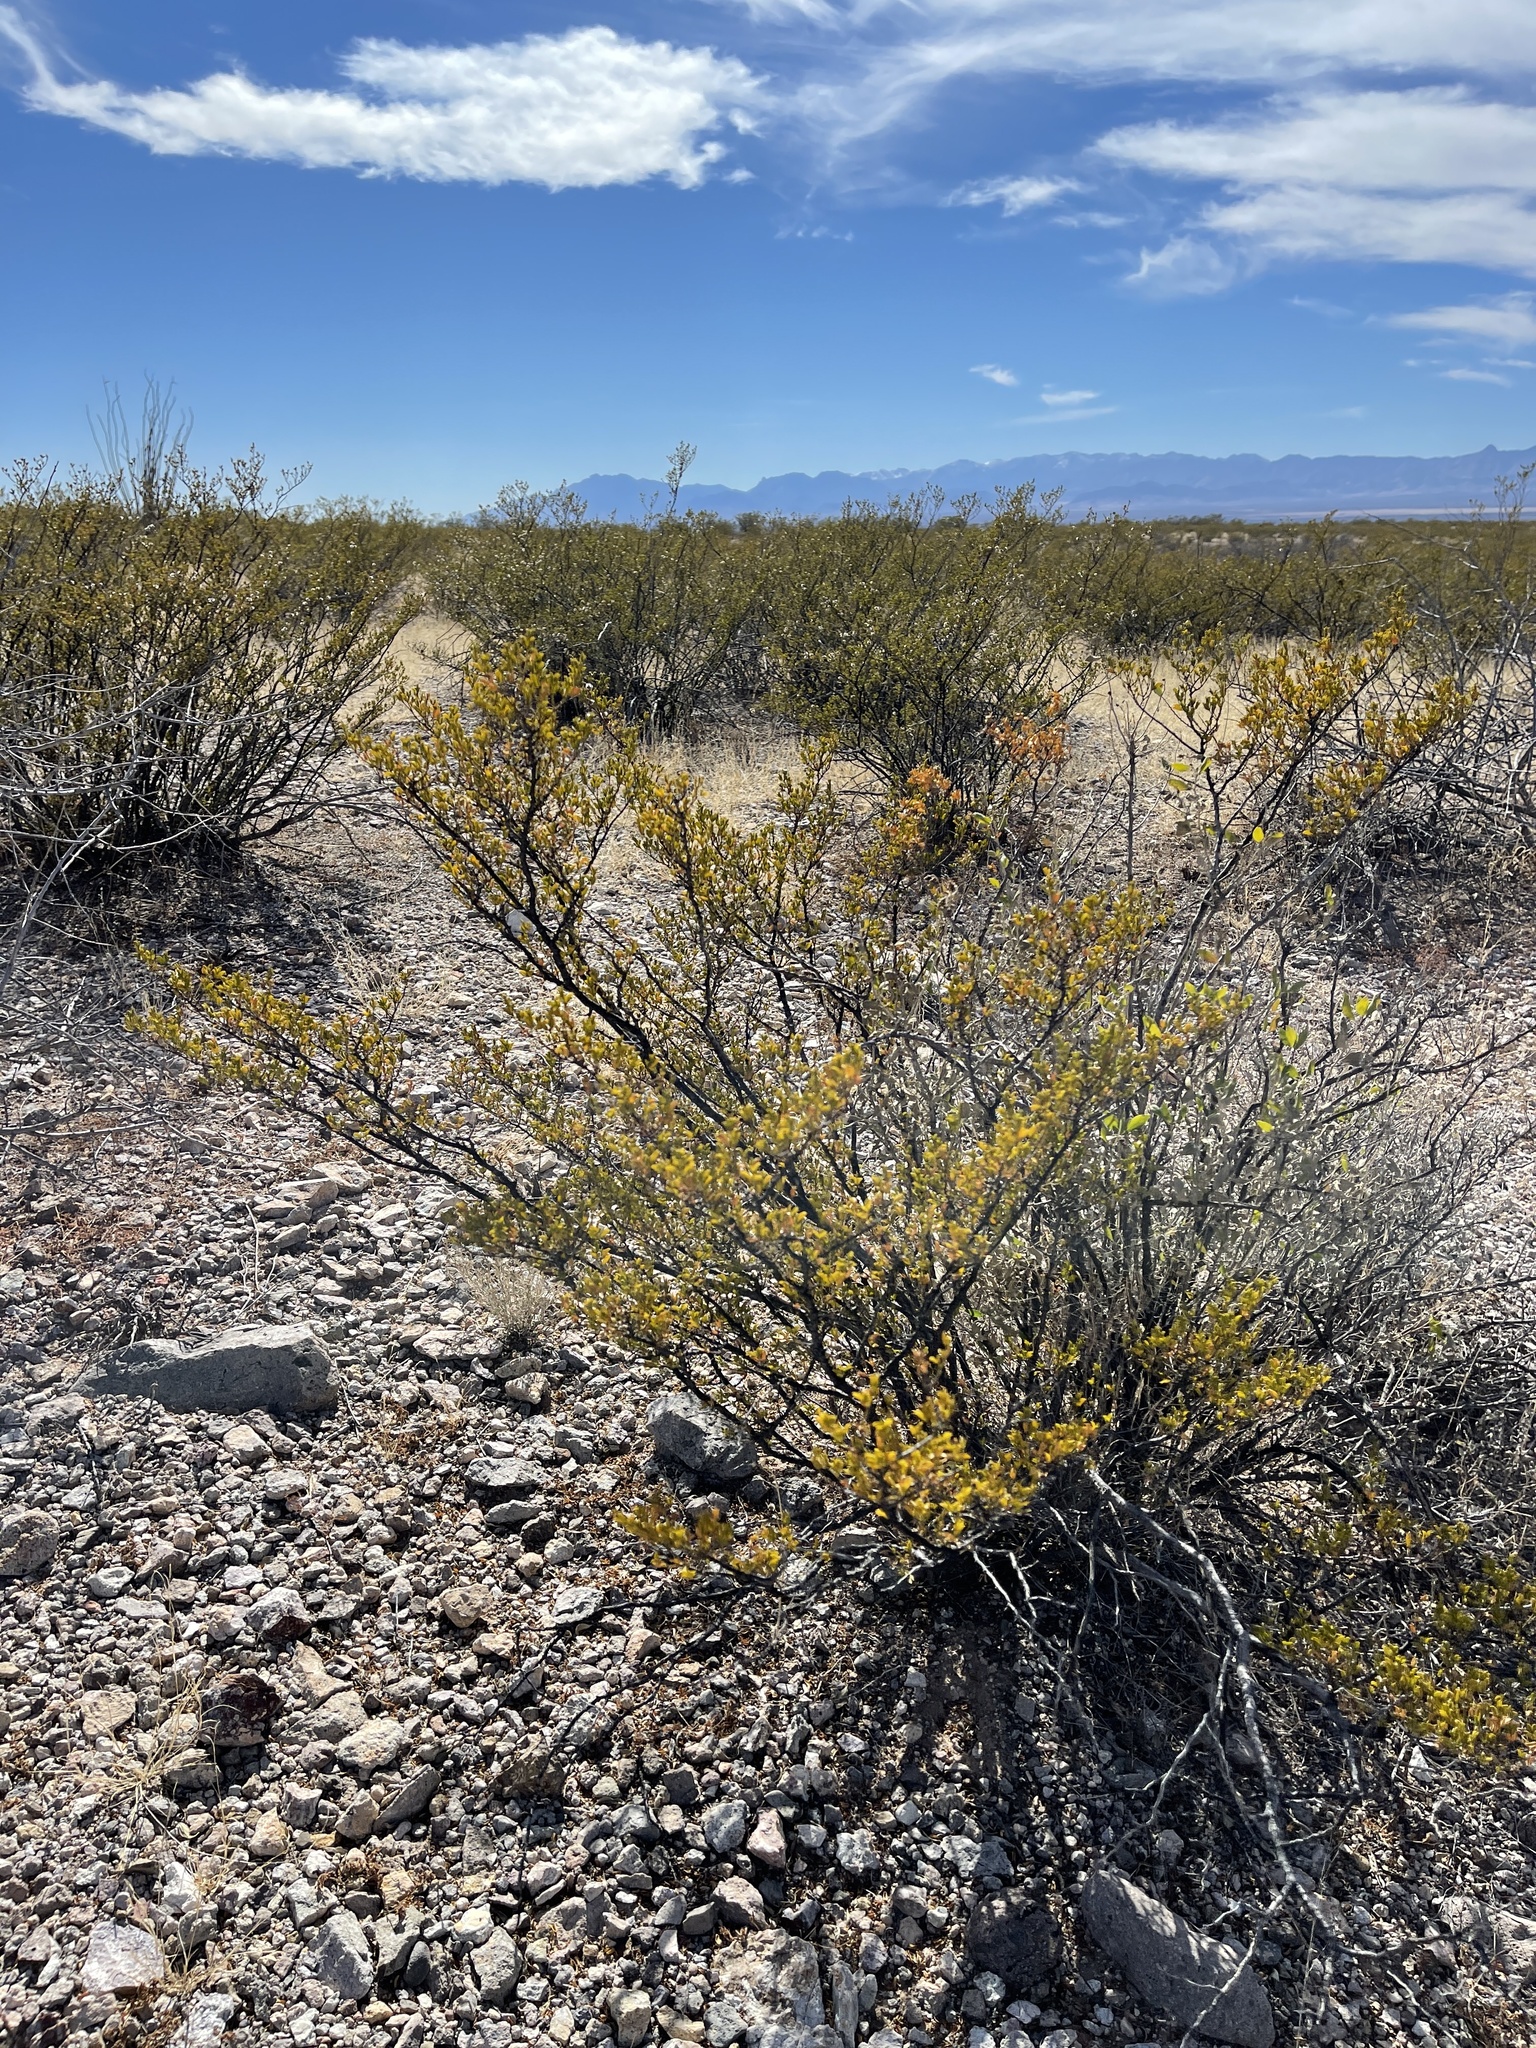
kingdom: Plantae
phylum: Tracheophyta
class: Magnoliopsida
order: Zygophyllales
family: Zygophyllaceae
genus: Larrea
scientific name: Larrea tridentata
